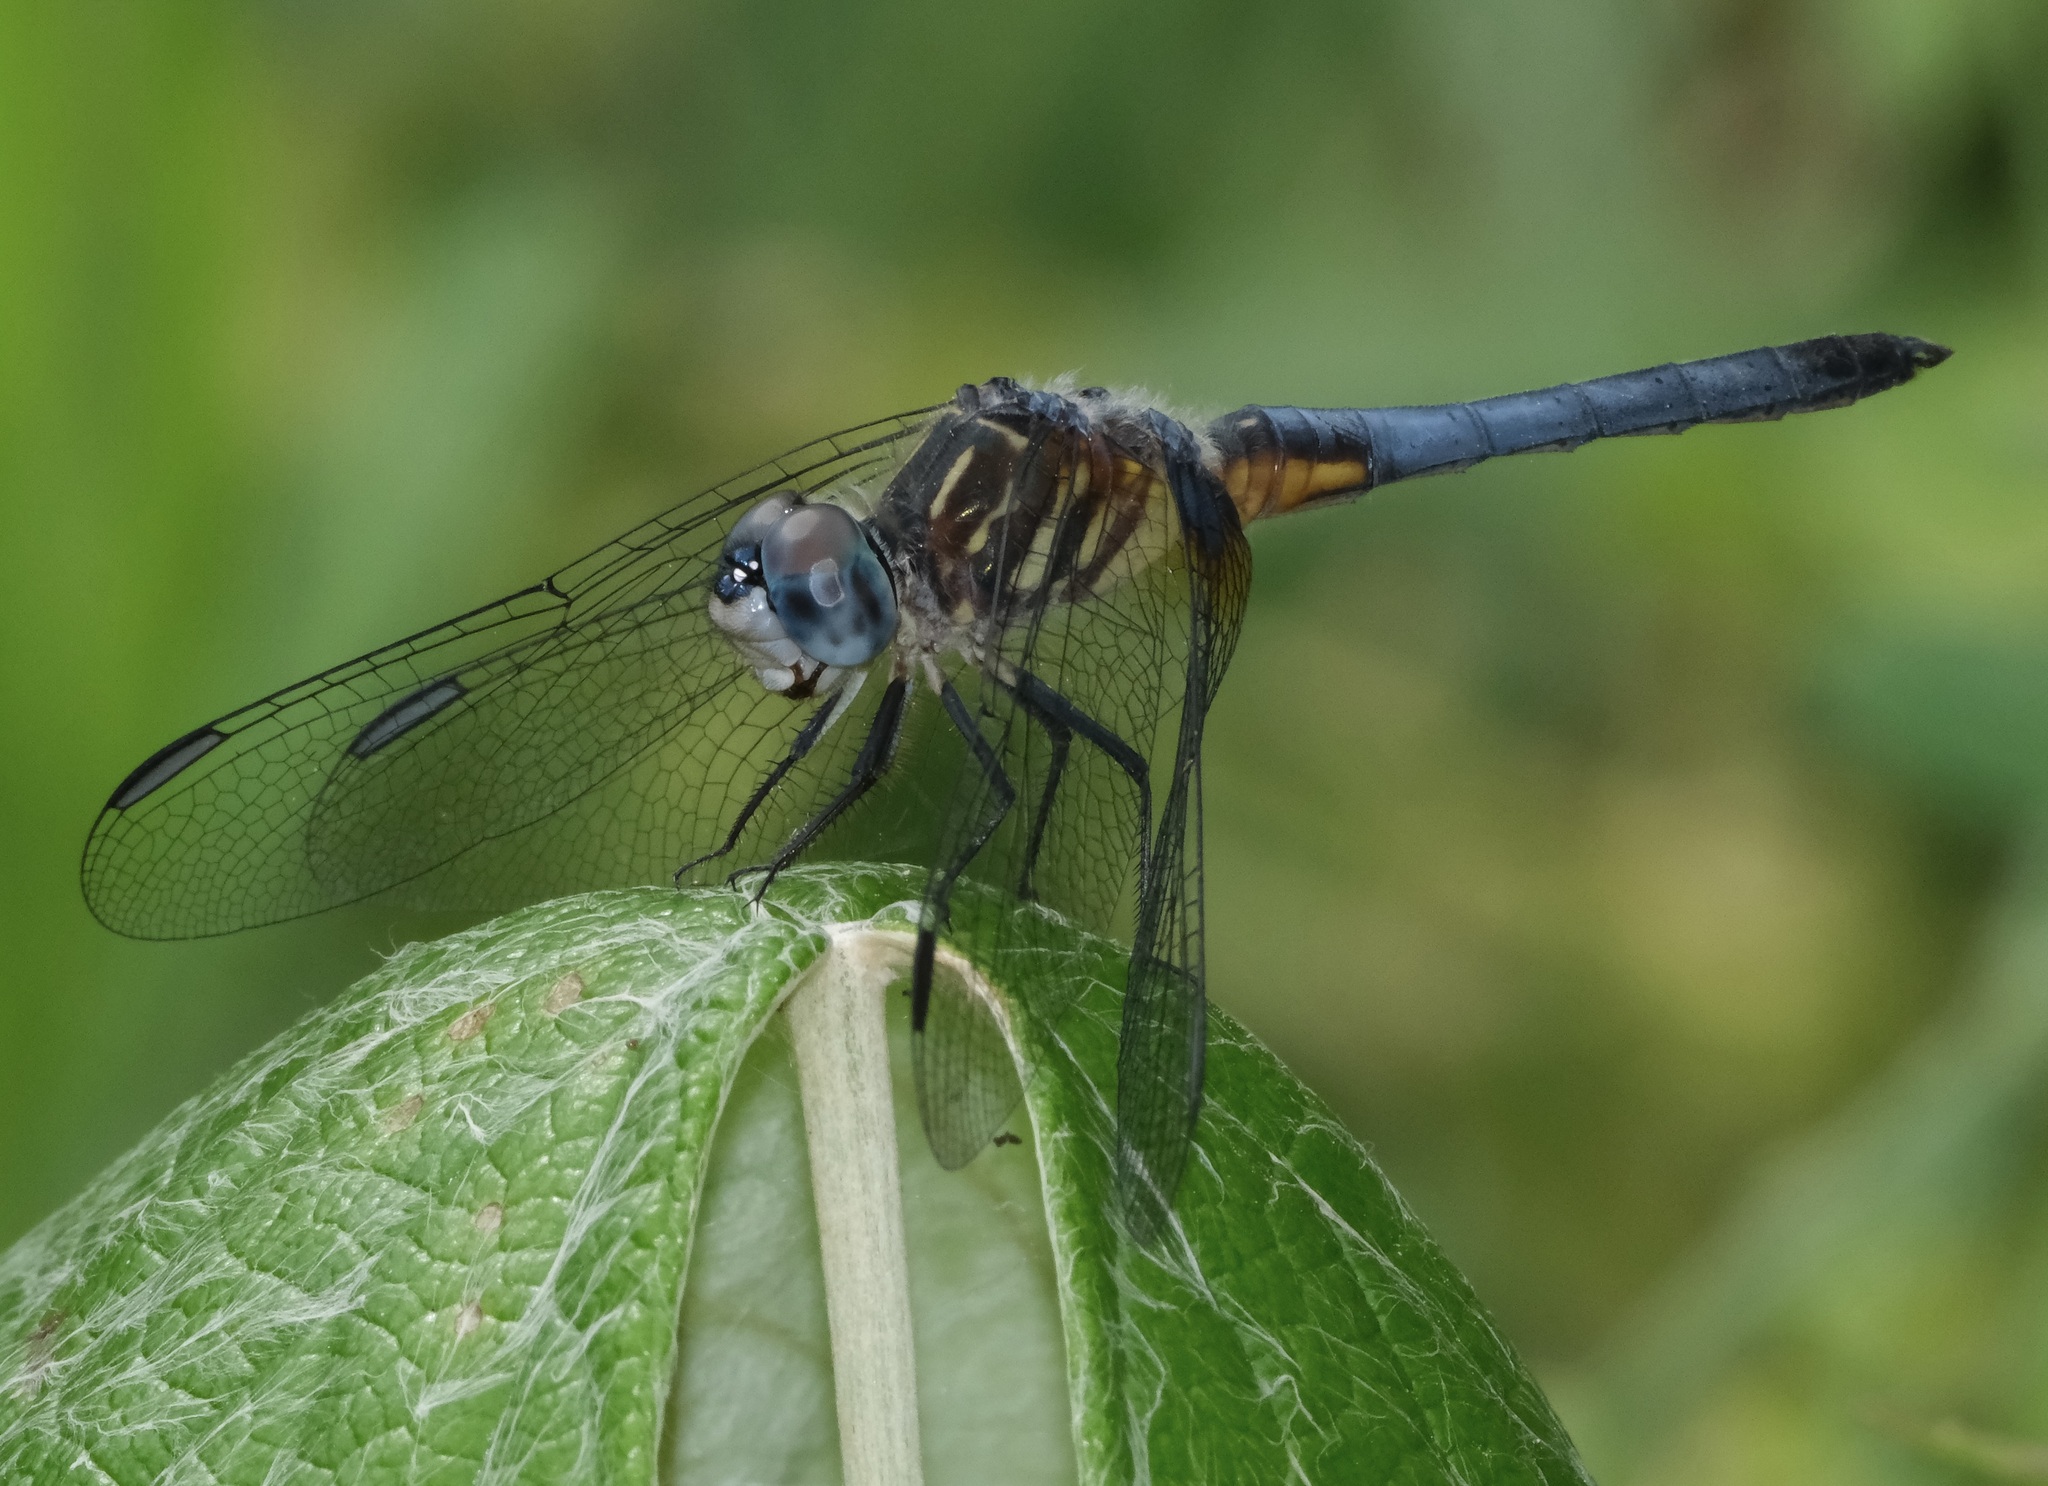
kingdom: Animalia
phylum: Arthropoda
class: Insecta
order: Odonata
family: Libellulidae
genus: Pachydiplax
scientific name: Pachydiplax longipennis
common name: Blue dasher
